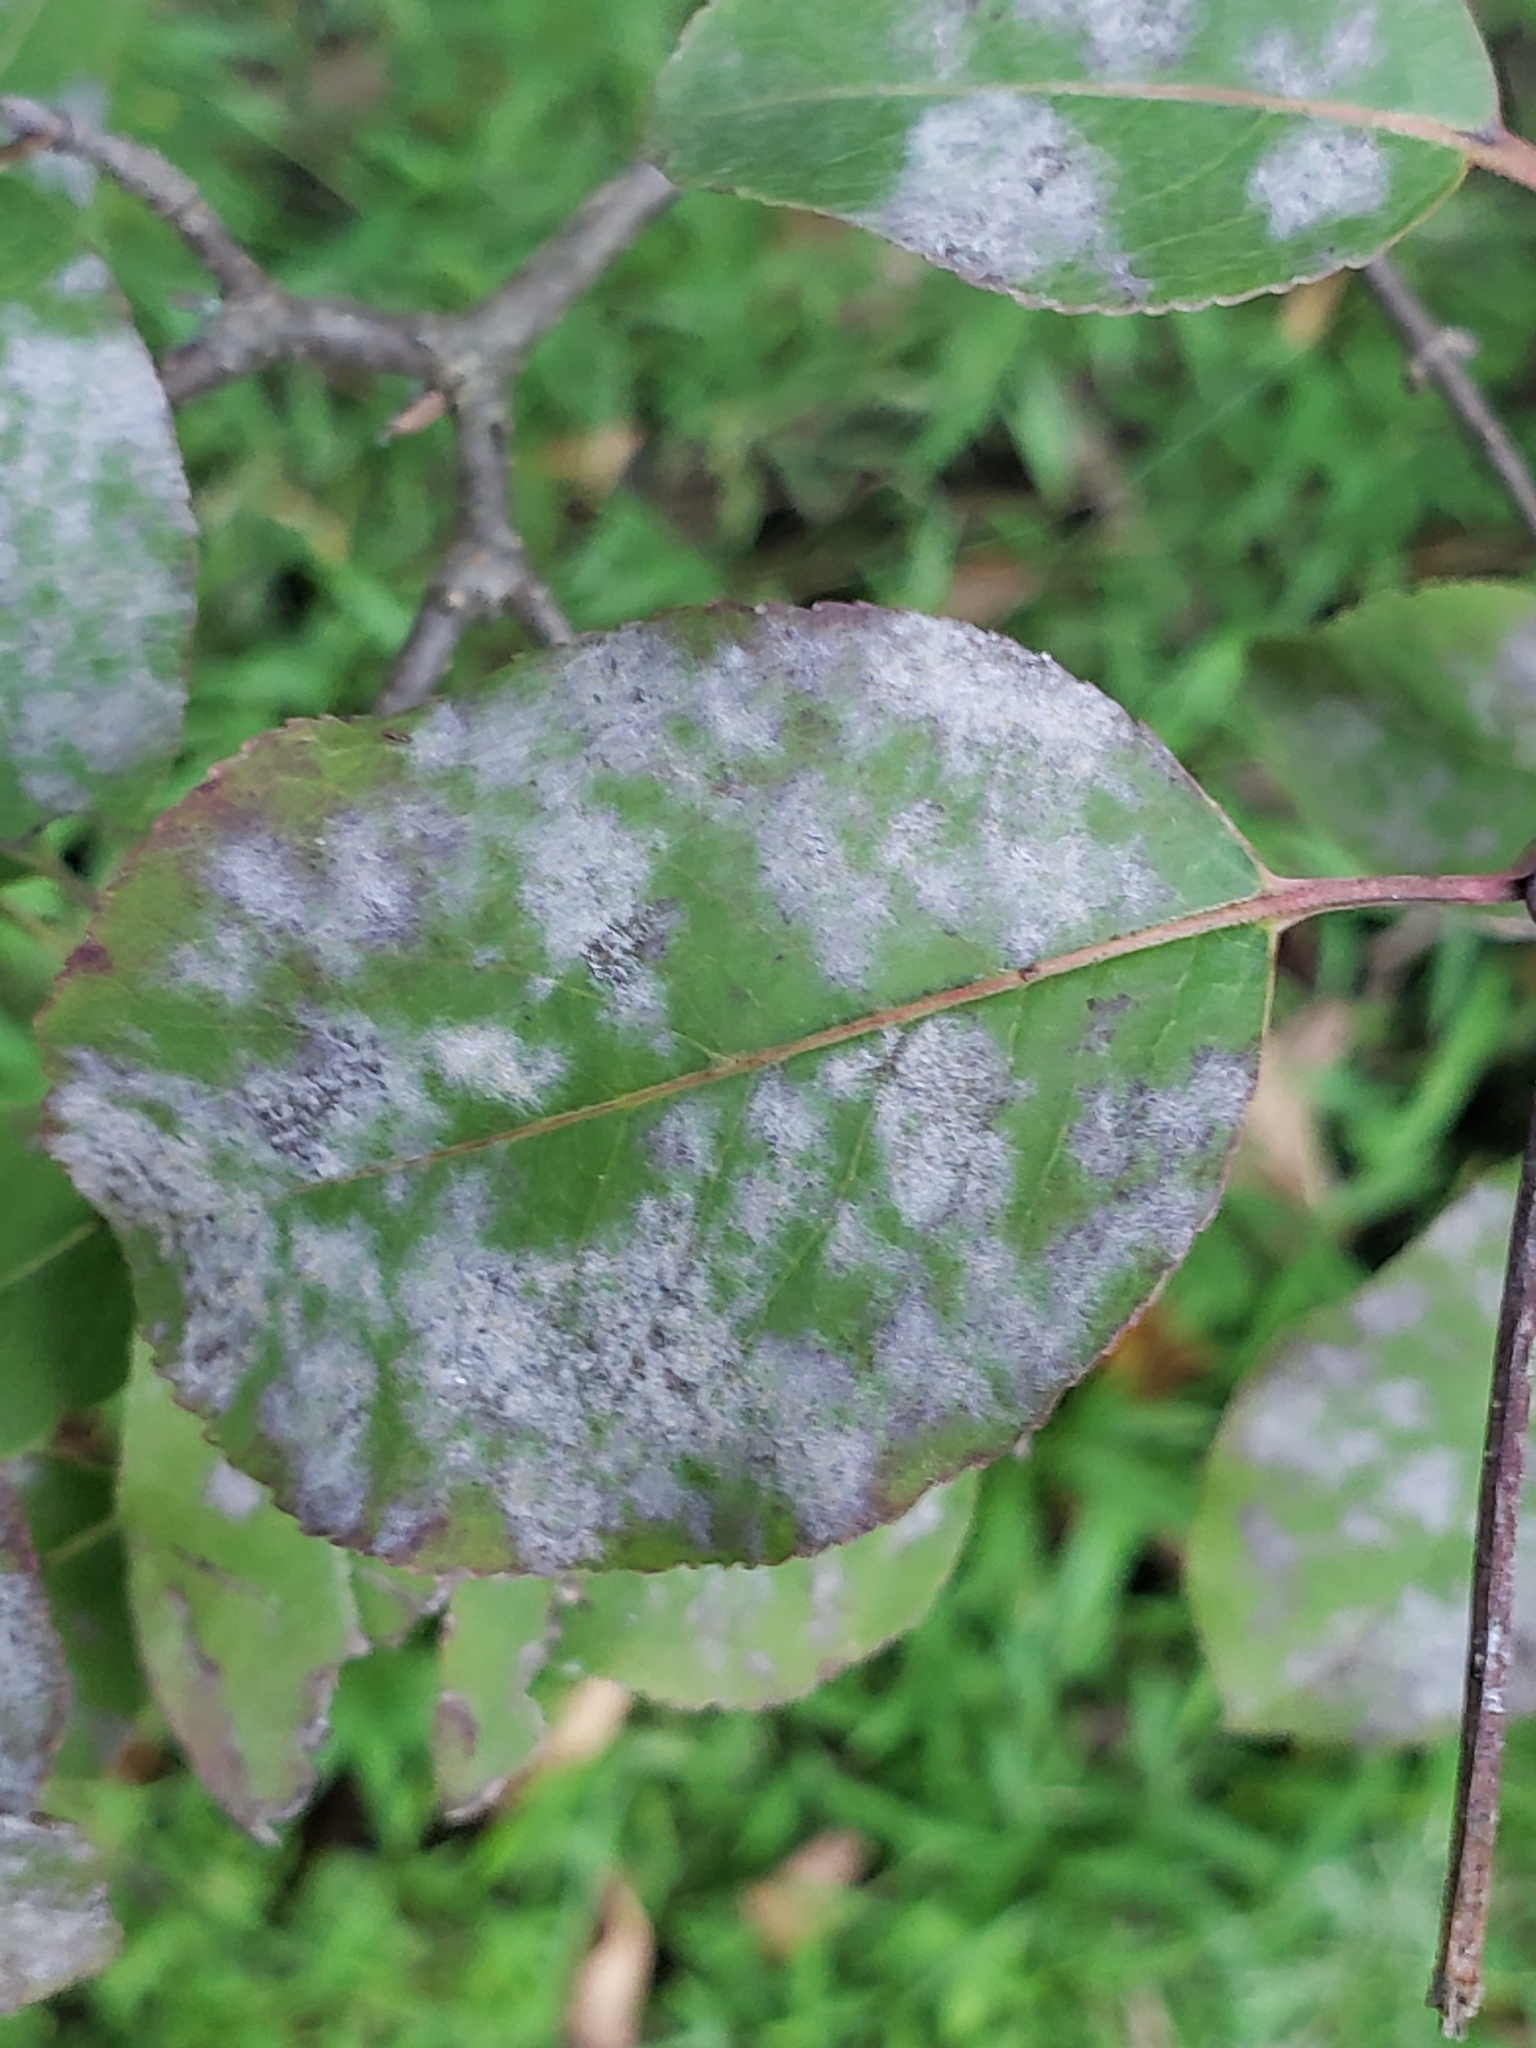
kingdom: Fungi
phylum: Ascomycota
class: Leotiomycetes
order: Helotiales
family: Erysiphaceae
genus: Erysiphe
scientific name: Erysiphe viburni
